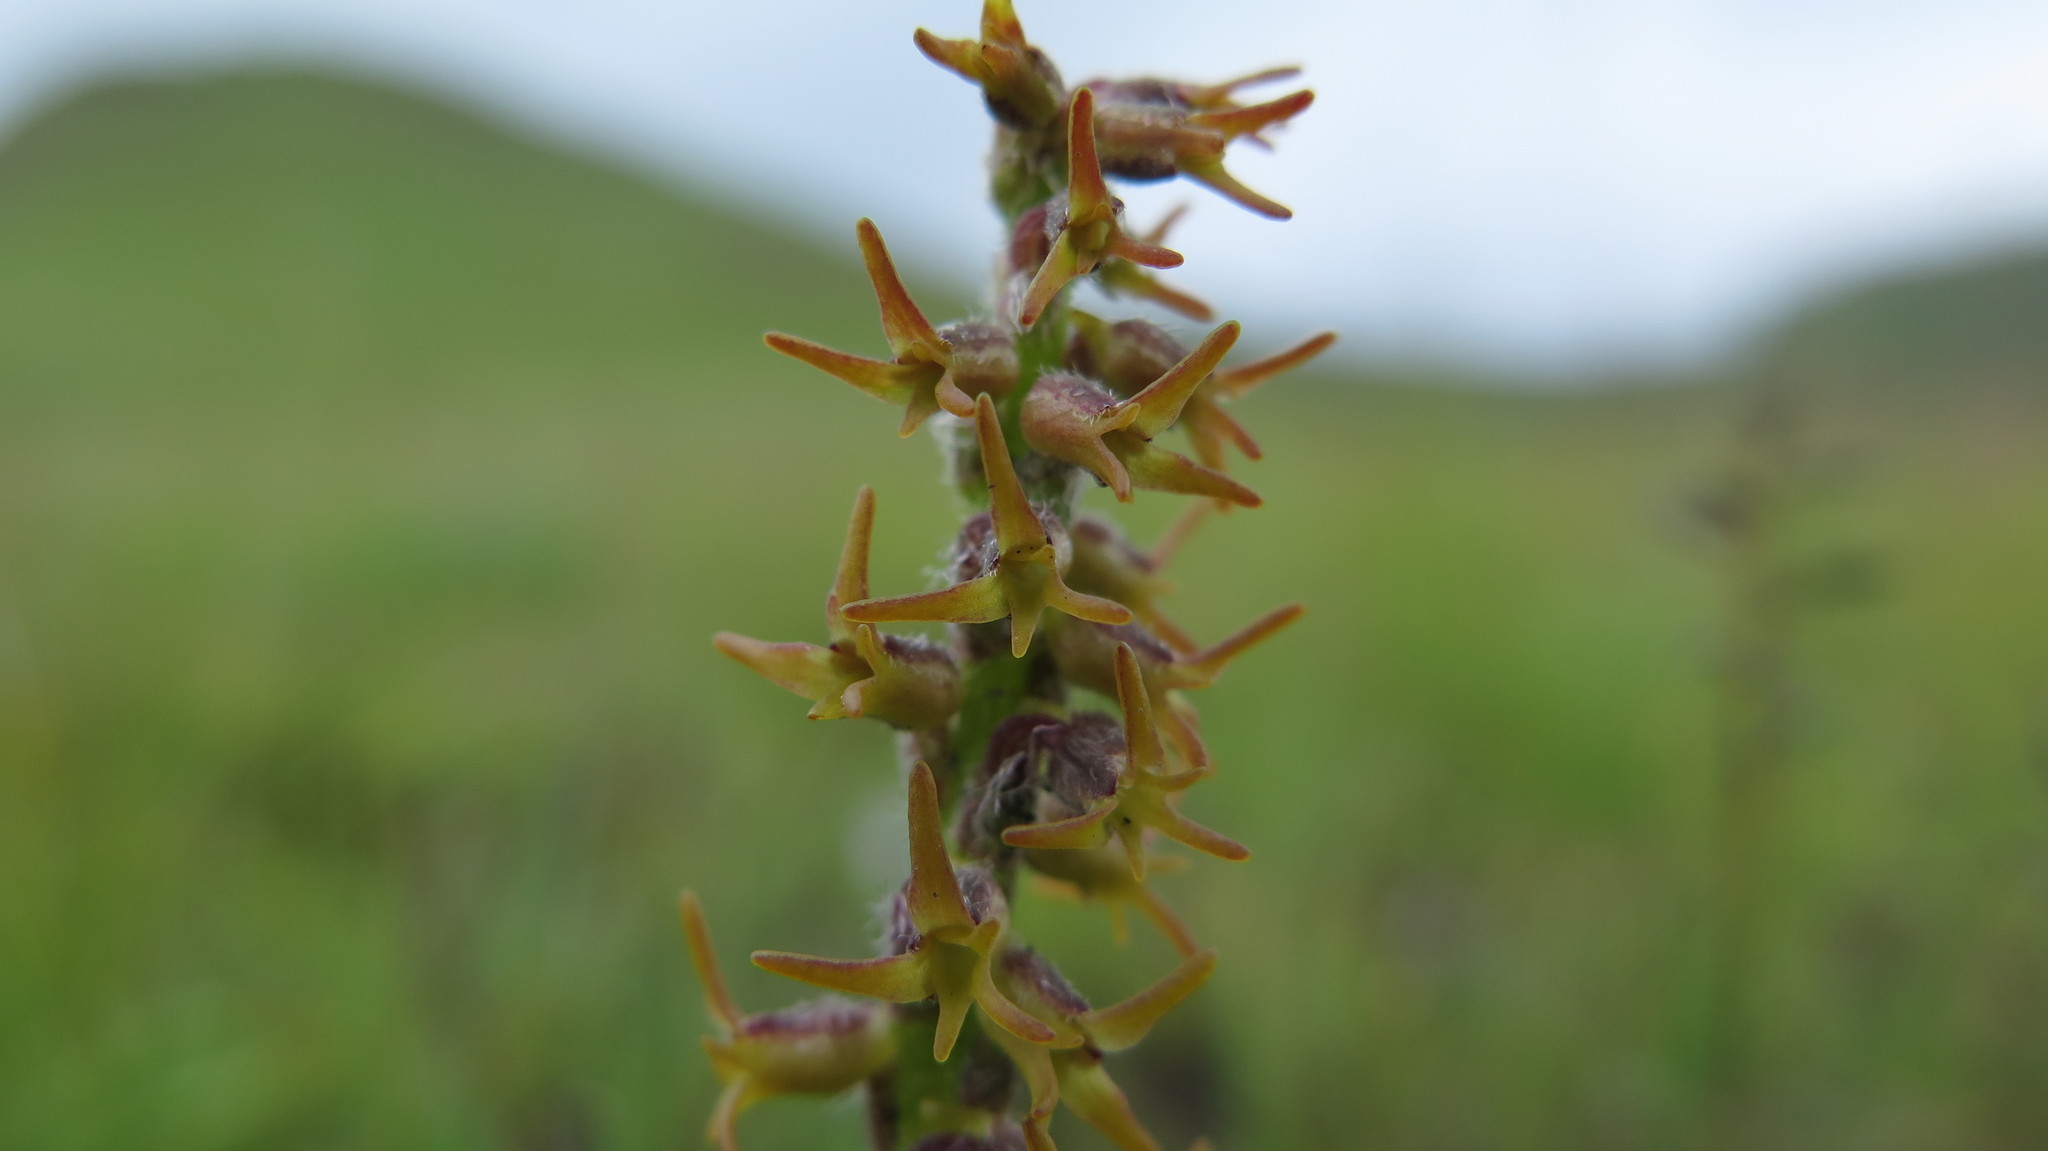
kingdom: Plantae
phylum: Tracheophyta
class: Liliopsida
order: Asparagales
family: Orchidaceae
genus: Holothrix
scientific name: Holothrix thodei
